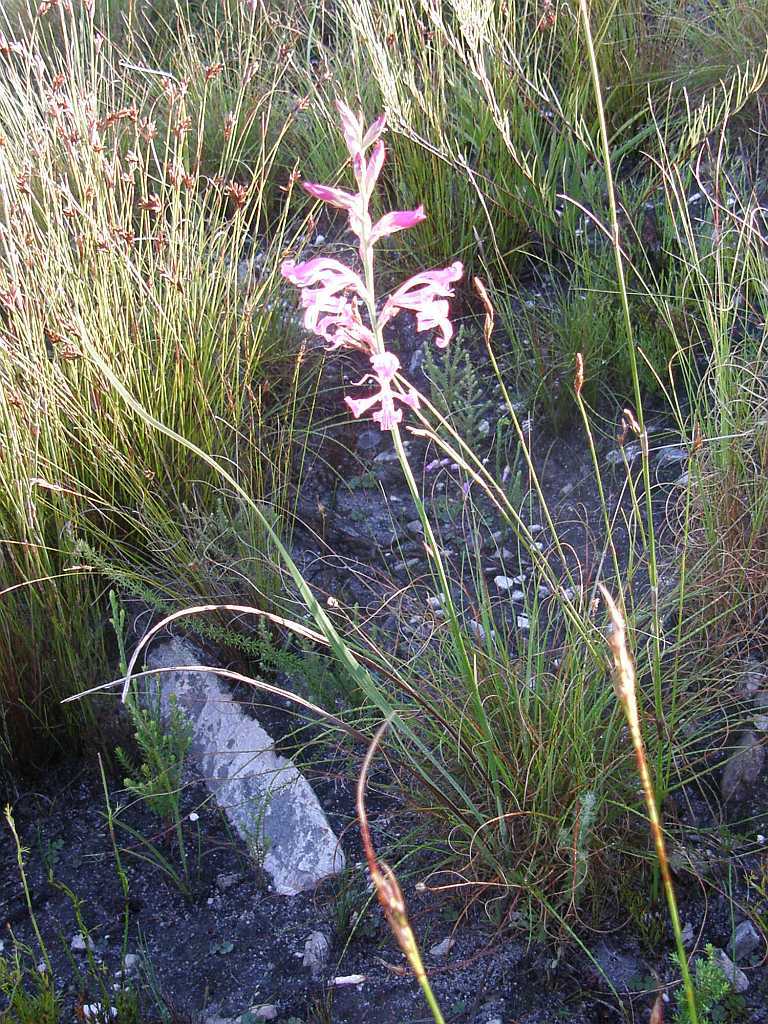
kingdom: Plantae
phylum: Tracheophyta
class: Liliopsida
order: Asparagales
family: Iridaceae
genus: Tritoniopsis
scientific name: Tritoniopsis lata
